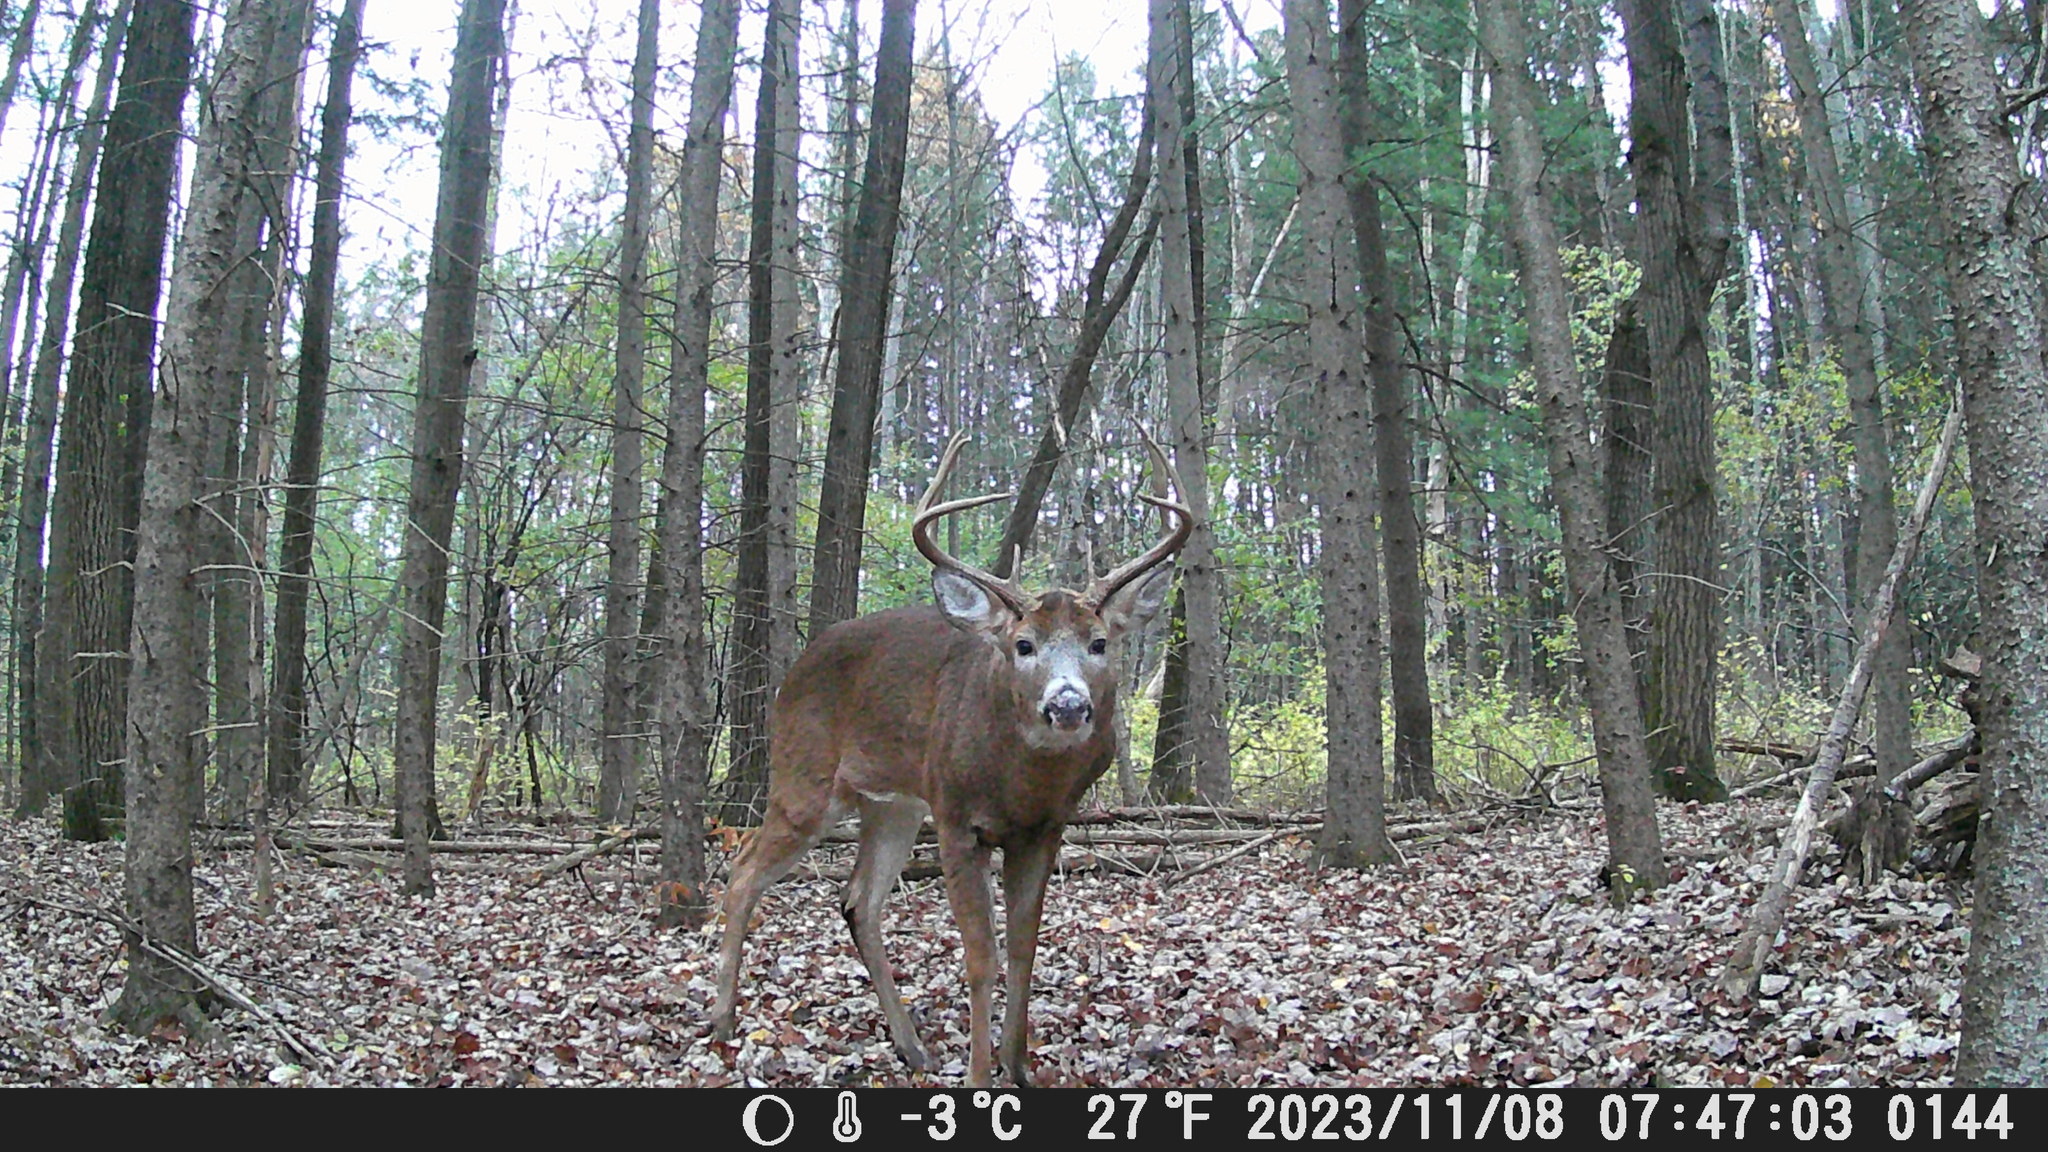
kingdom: Animalia
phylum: Chordata
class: Mammalia
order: Artiodactyla
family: Cervidae
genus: Odocoileus
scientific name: Odocoileus virginianus
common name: White-tailed deer
